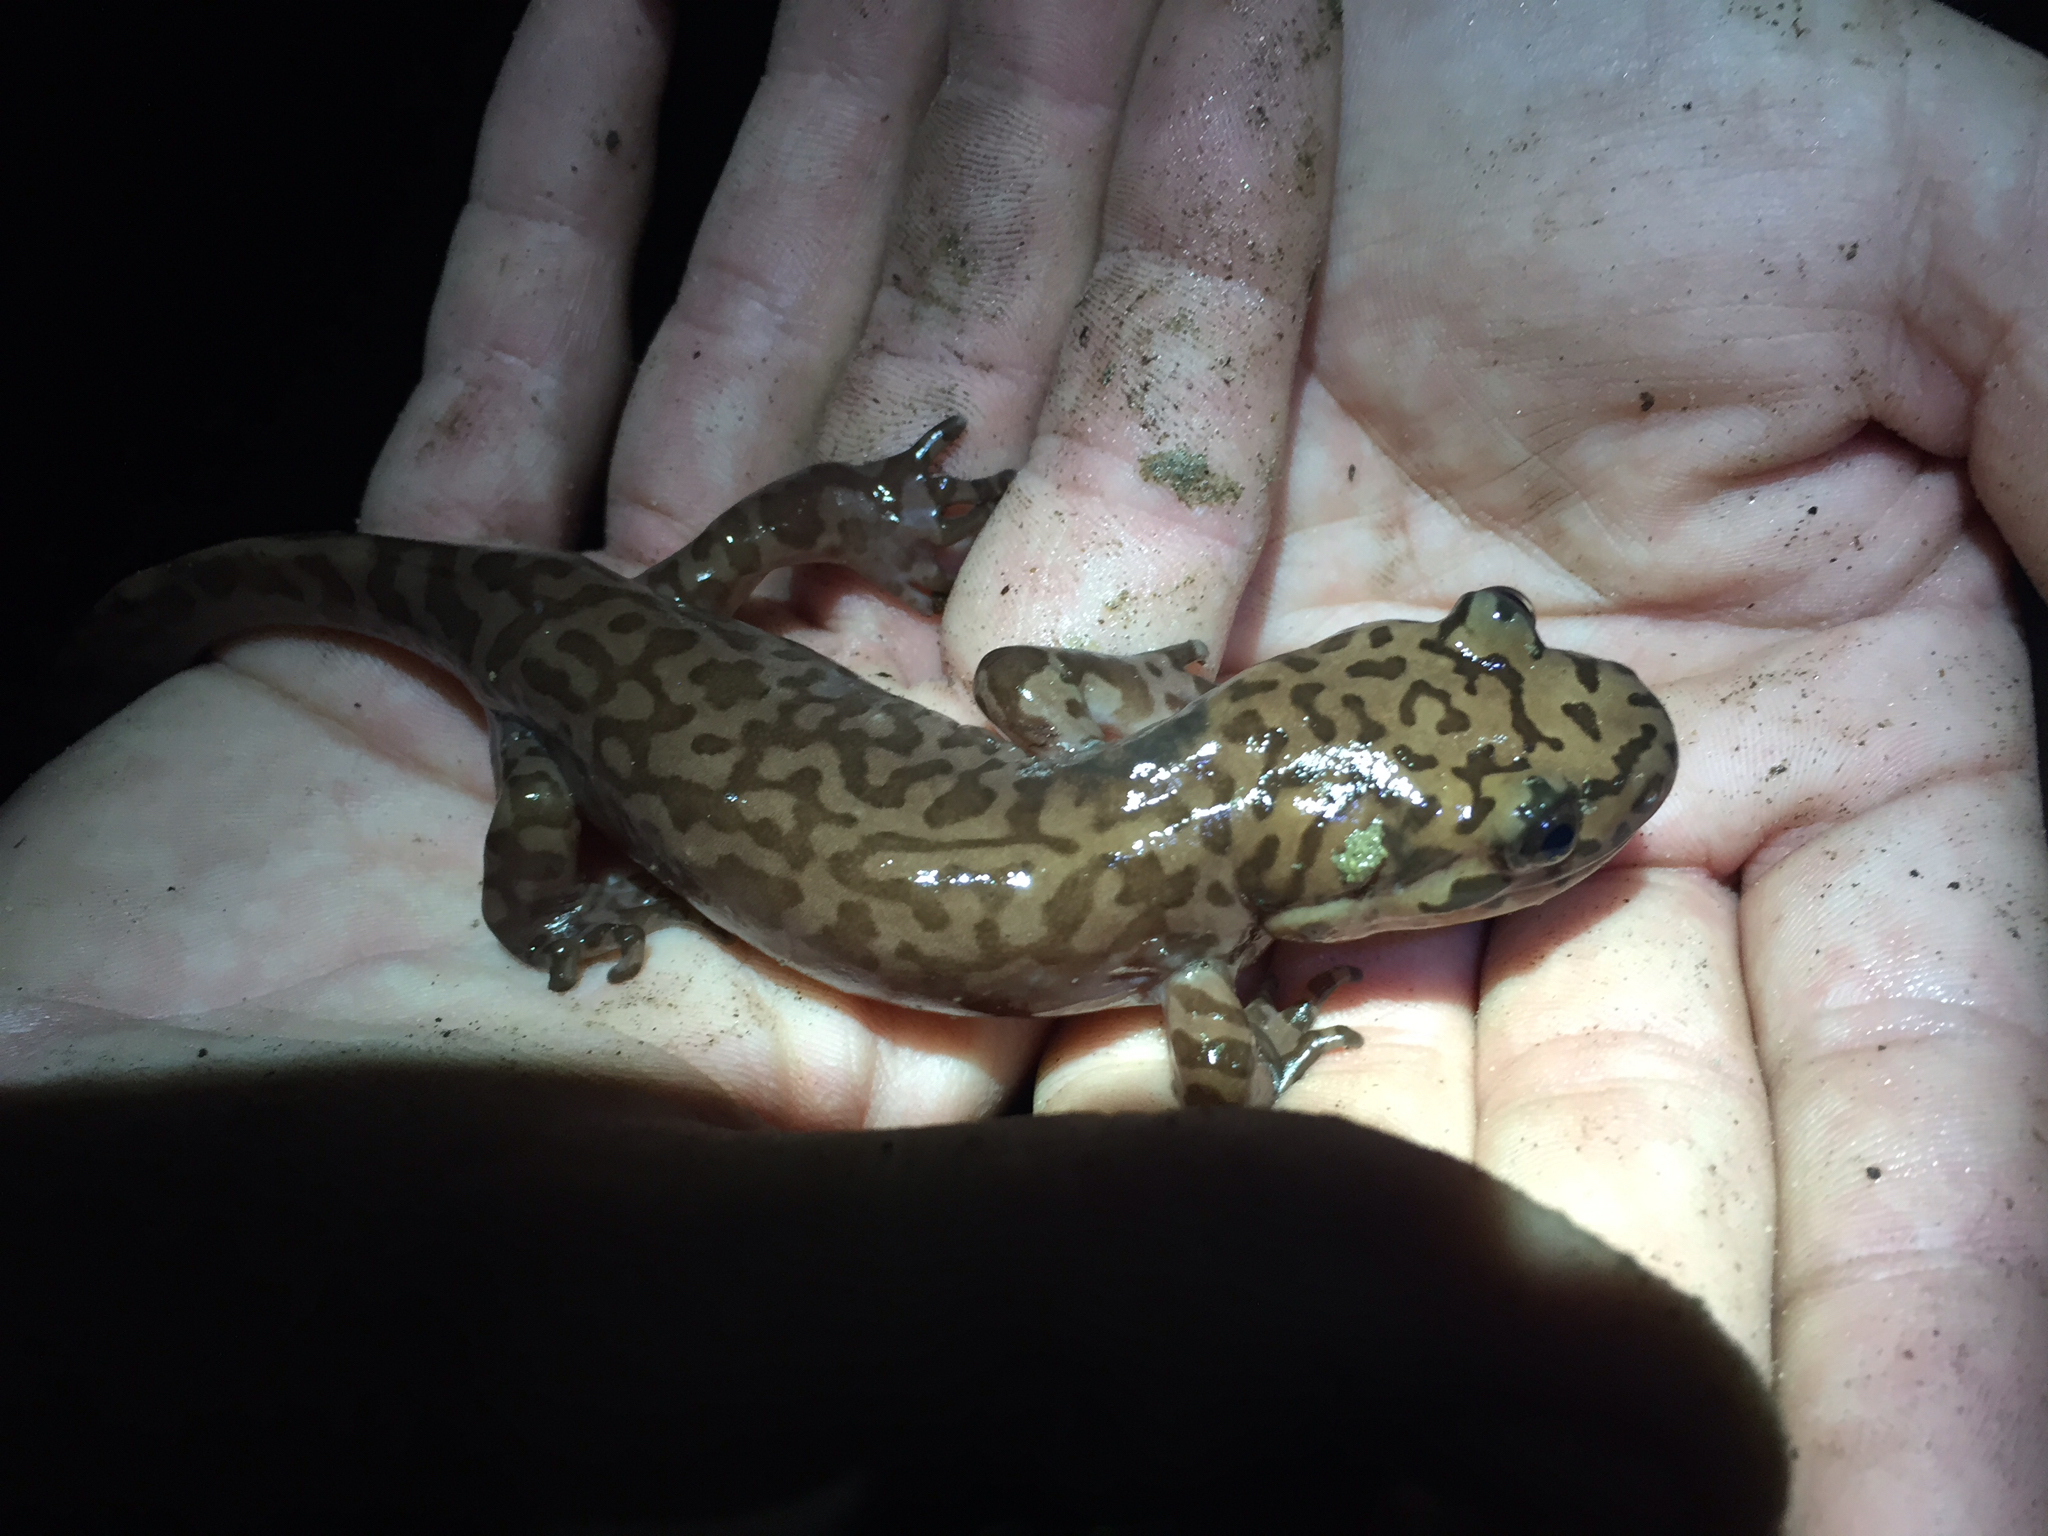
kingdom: Animalia
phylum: Chordata
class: Amphibia
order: Caudata
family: Ambystomatidae
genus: Dicamptodon
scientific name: Dicamptodon ensatus
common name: California giant salamander
